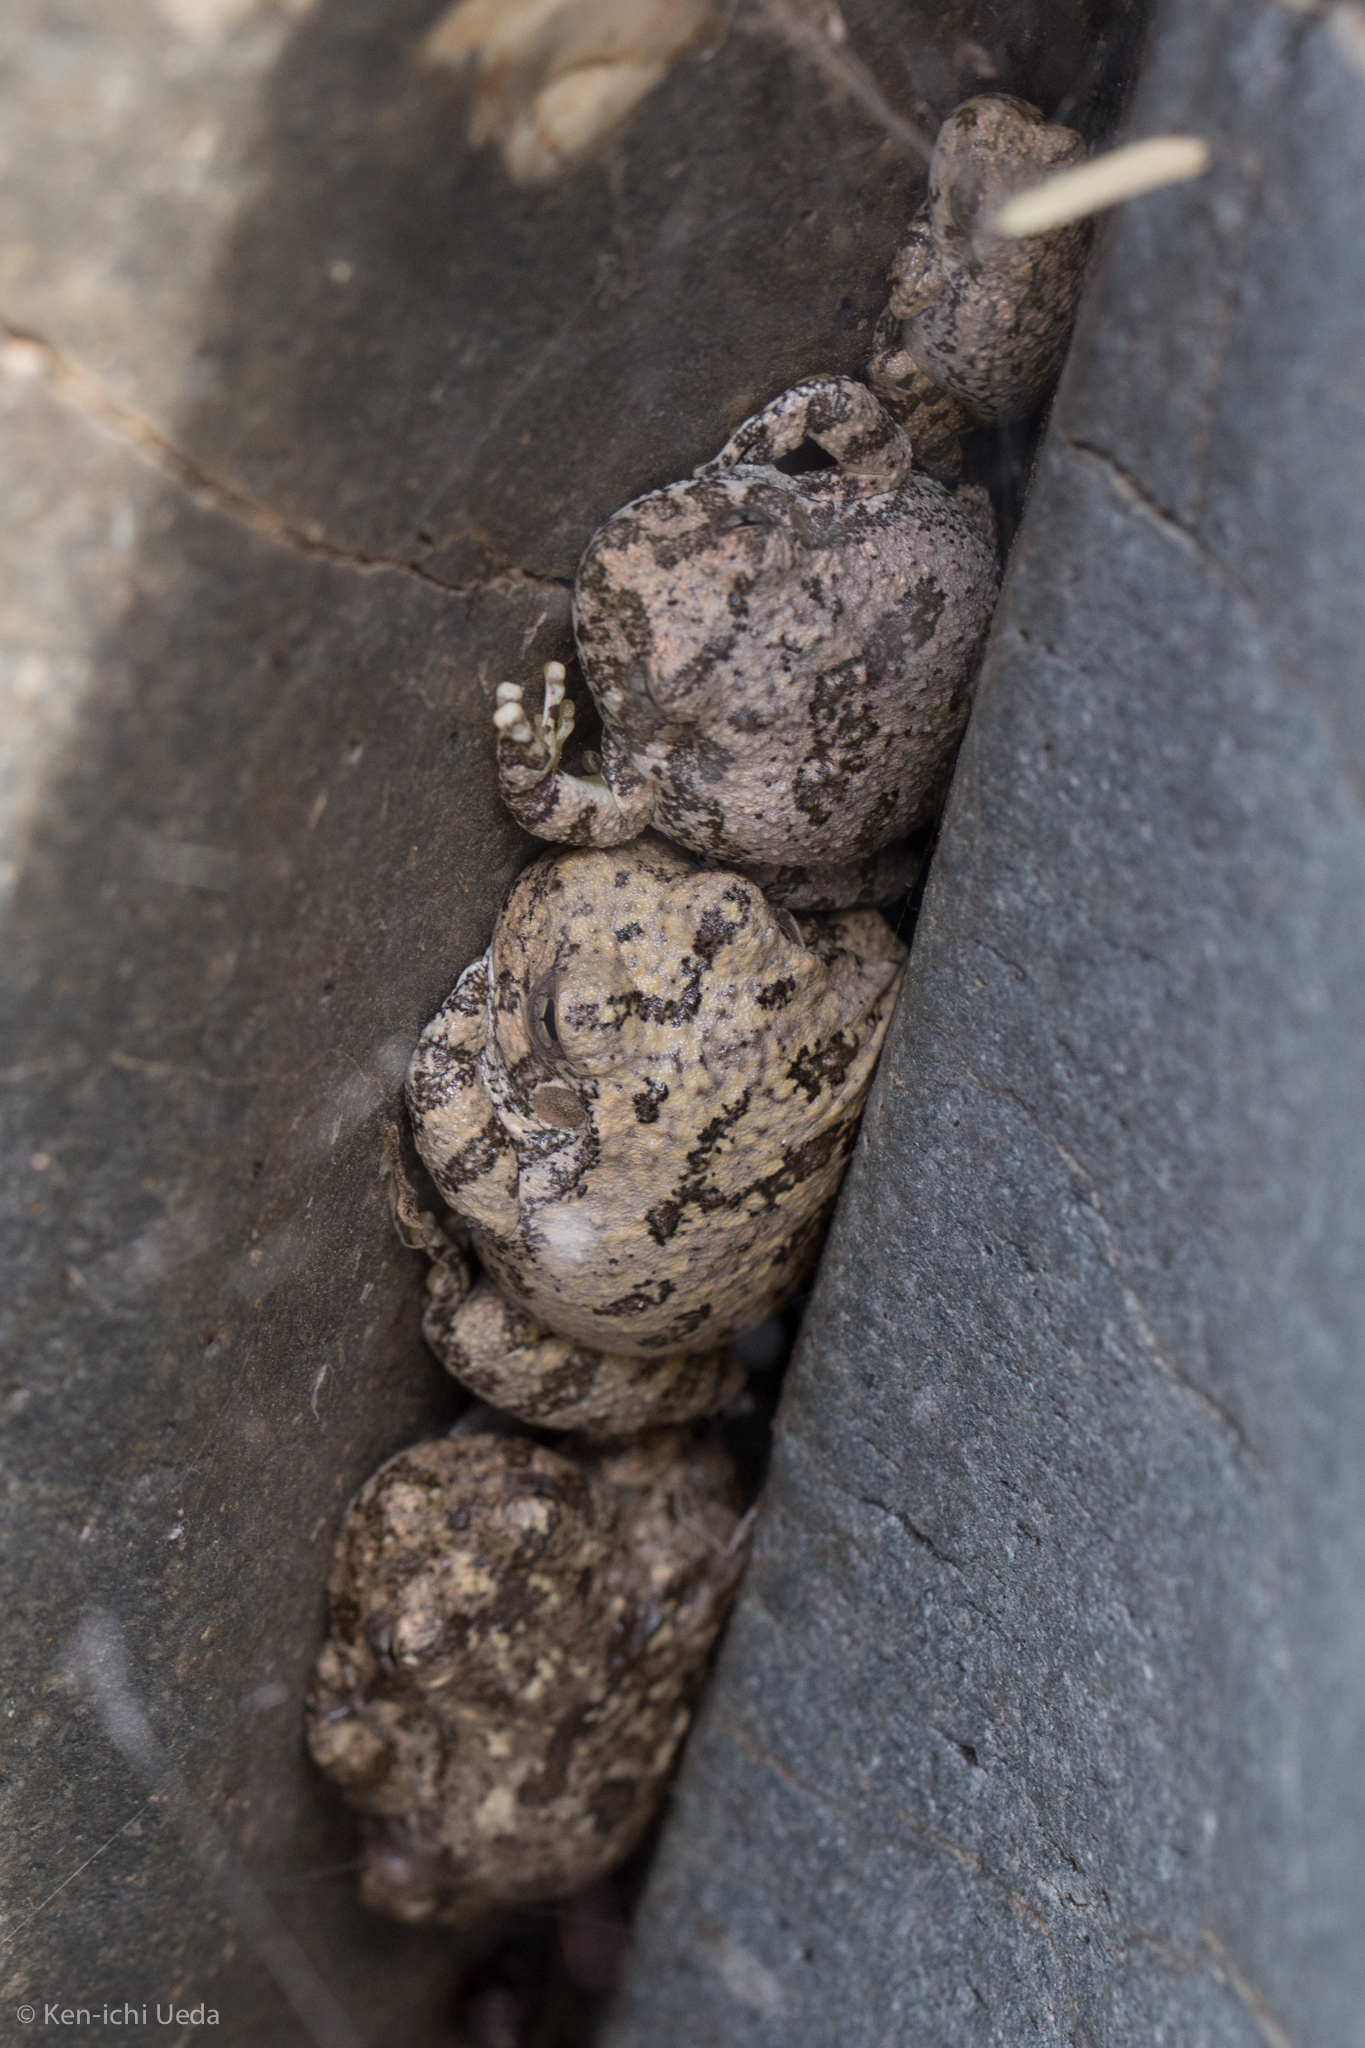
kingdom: Animalia
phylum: Chordata
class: Amphibia
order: Anura
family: Hylidae
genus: Dryophytes
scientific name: Dryophytes arenicolor
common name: Canyon treefrog
